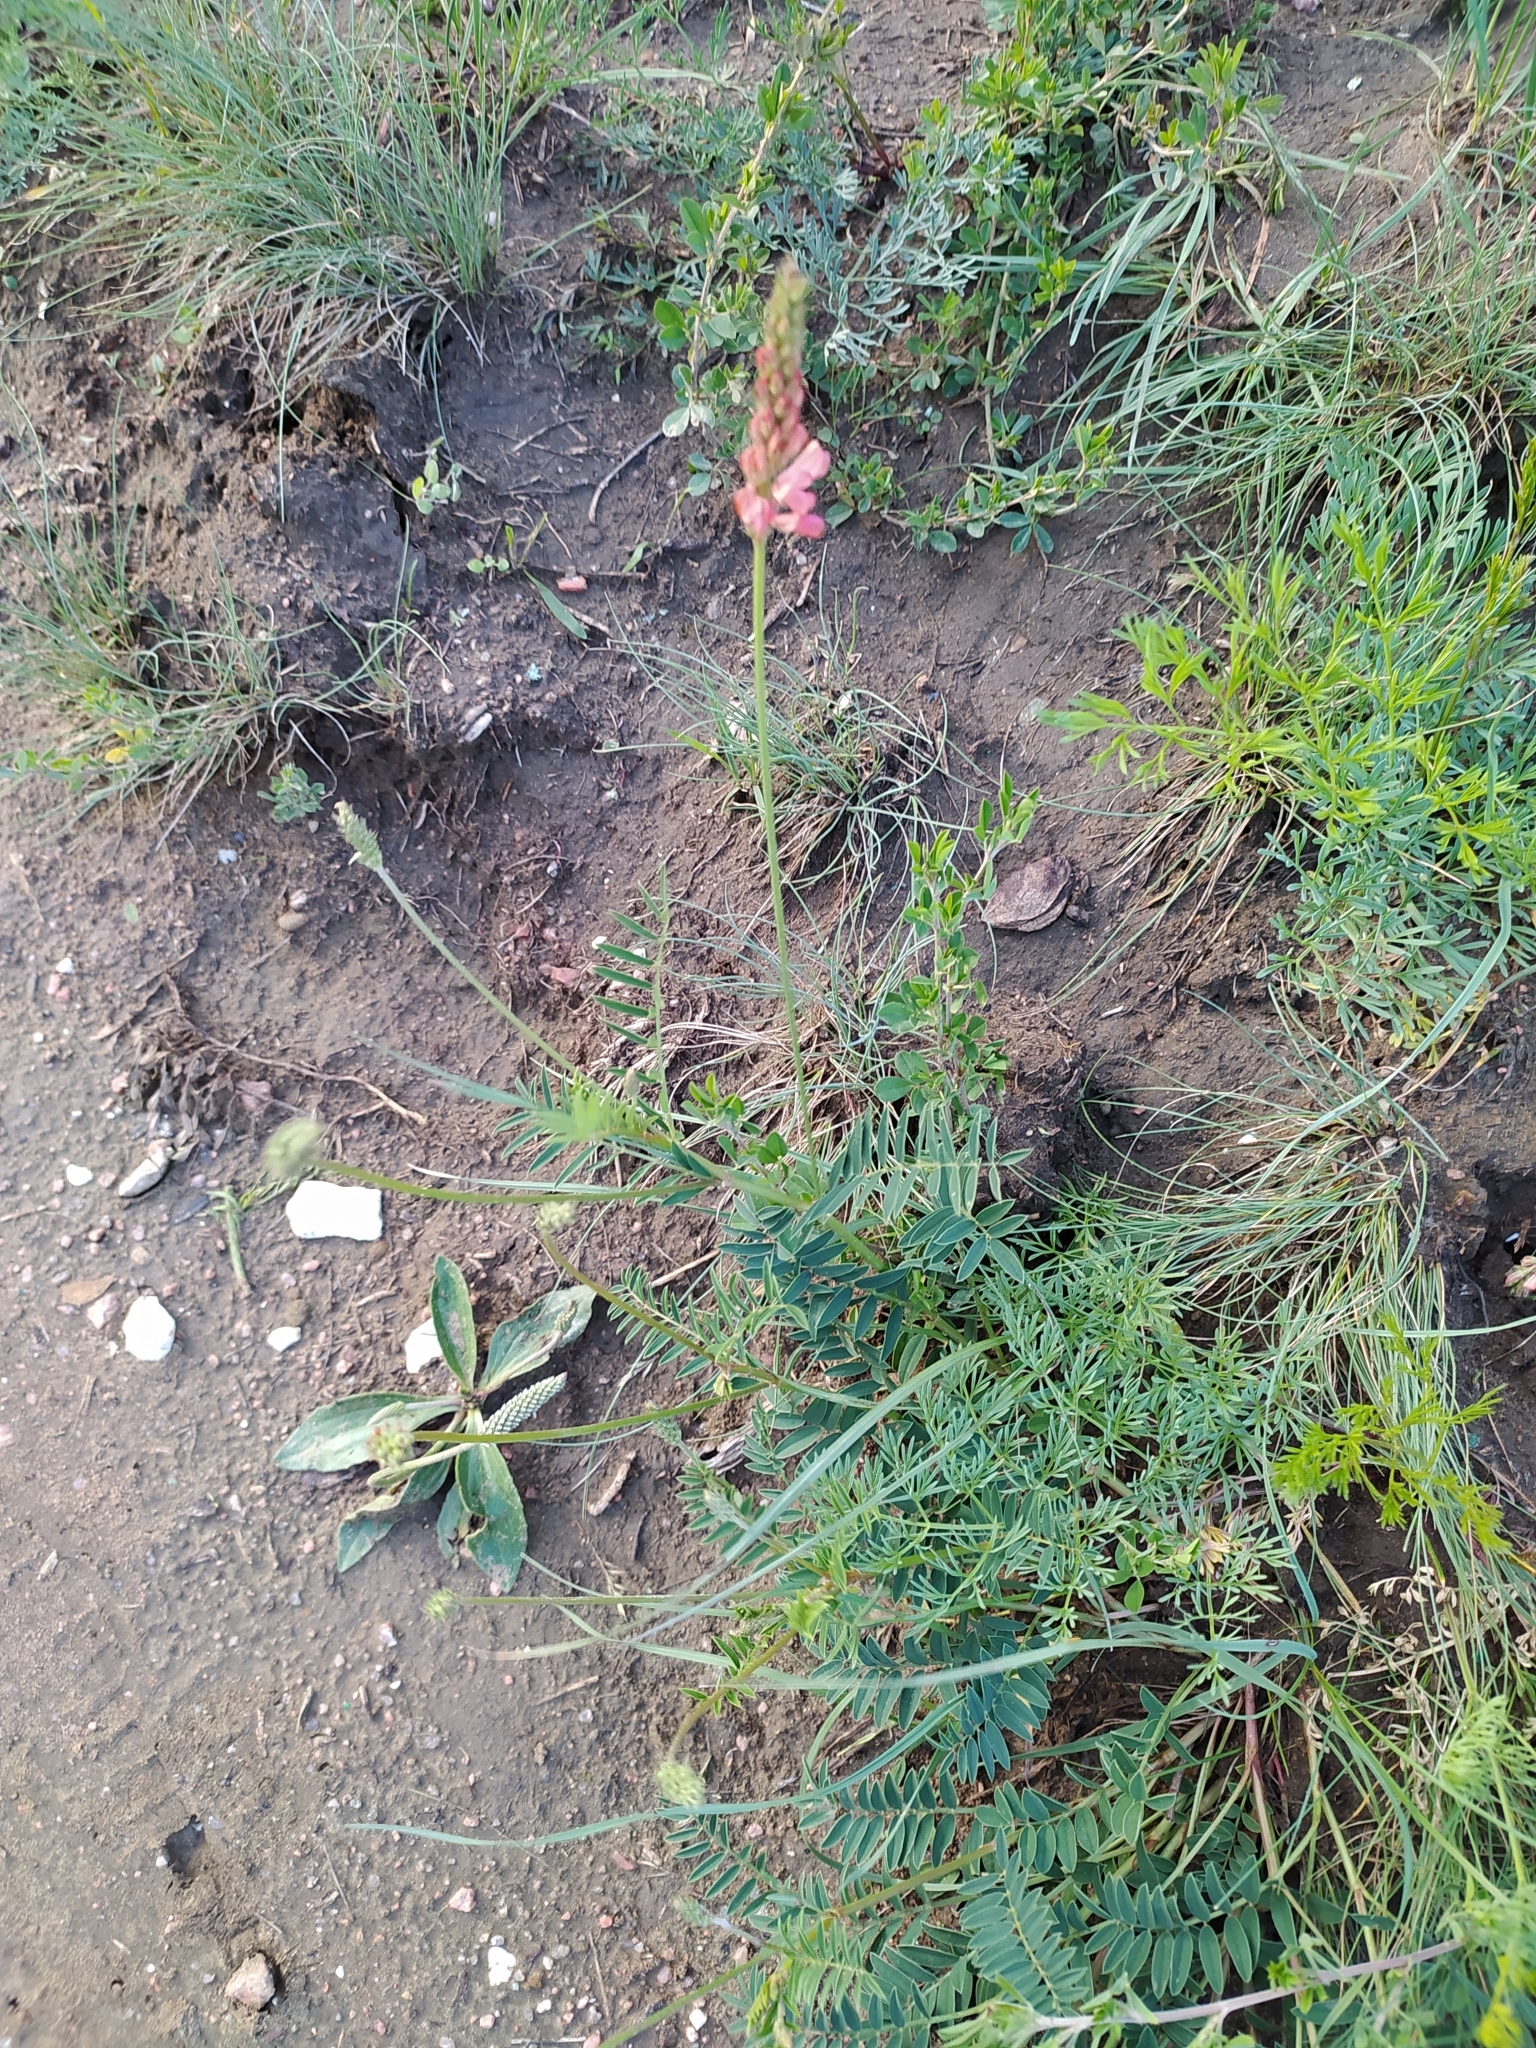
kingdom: Plantae
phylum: Tracheophyta
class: Magnoliopsida
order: Fabales
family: Fabaceae
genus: Onobrychis
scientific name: Onobrychis inermis
